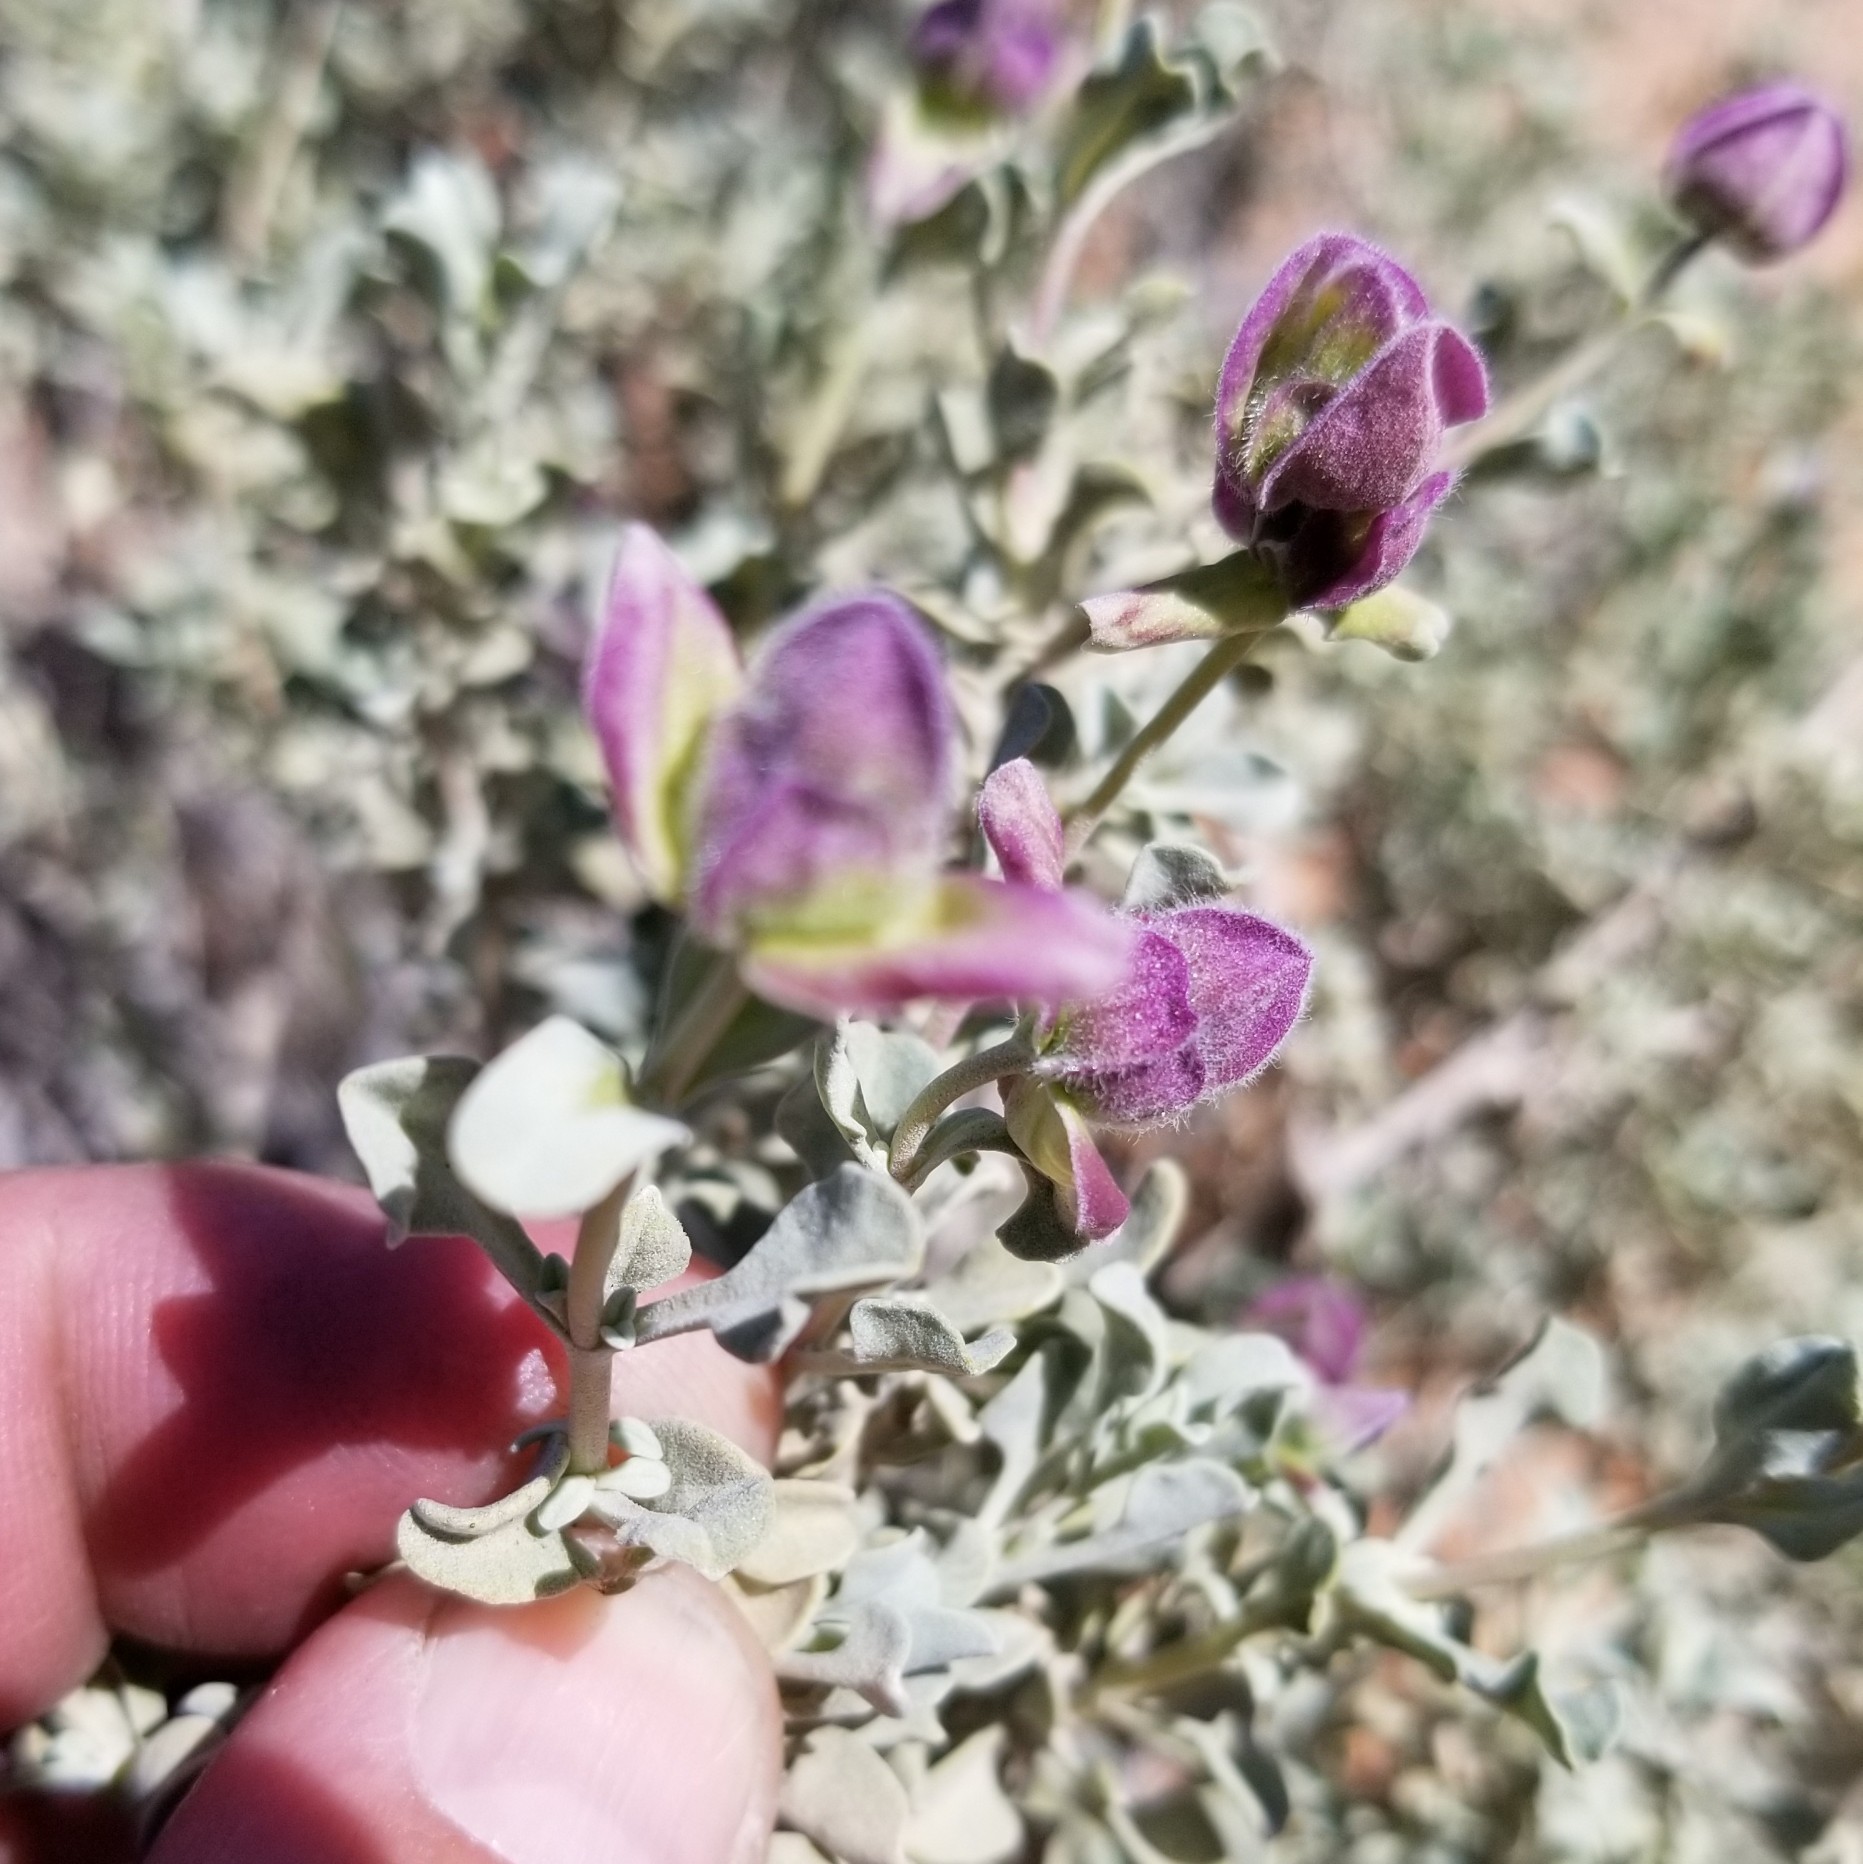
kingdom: Plantae
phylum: Tracheophyta
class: Magnoliopsida
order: Lamiales
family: Lamiaceae
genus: Salvia
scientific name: Salvia dorrii
